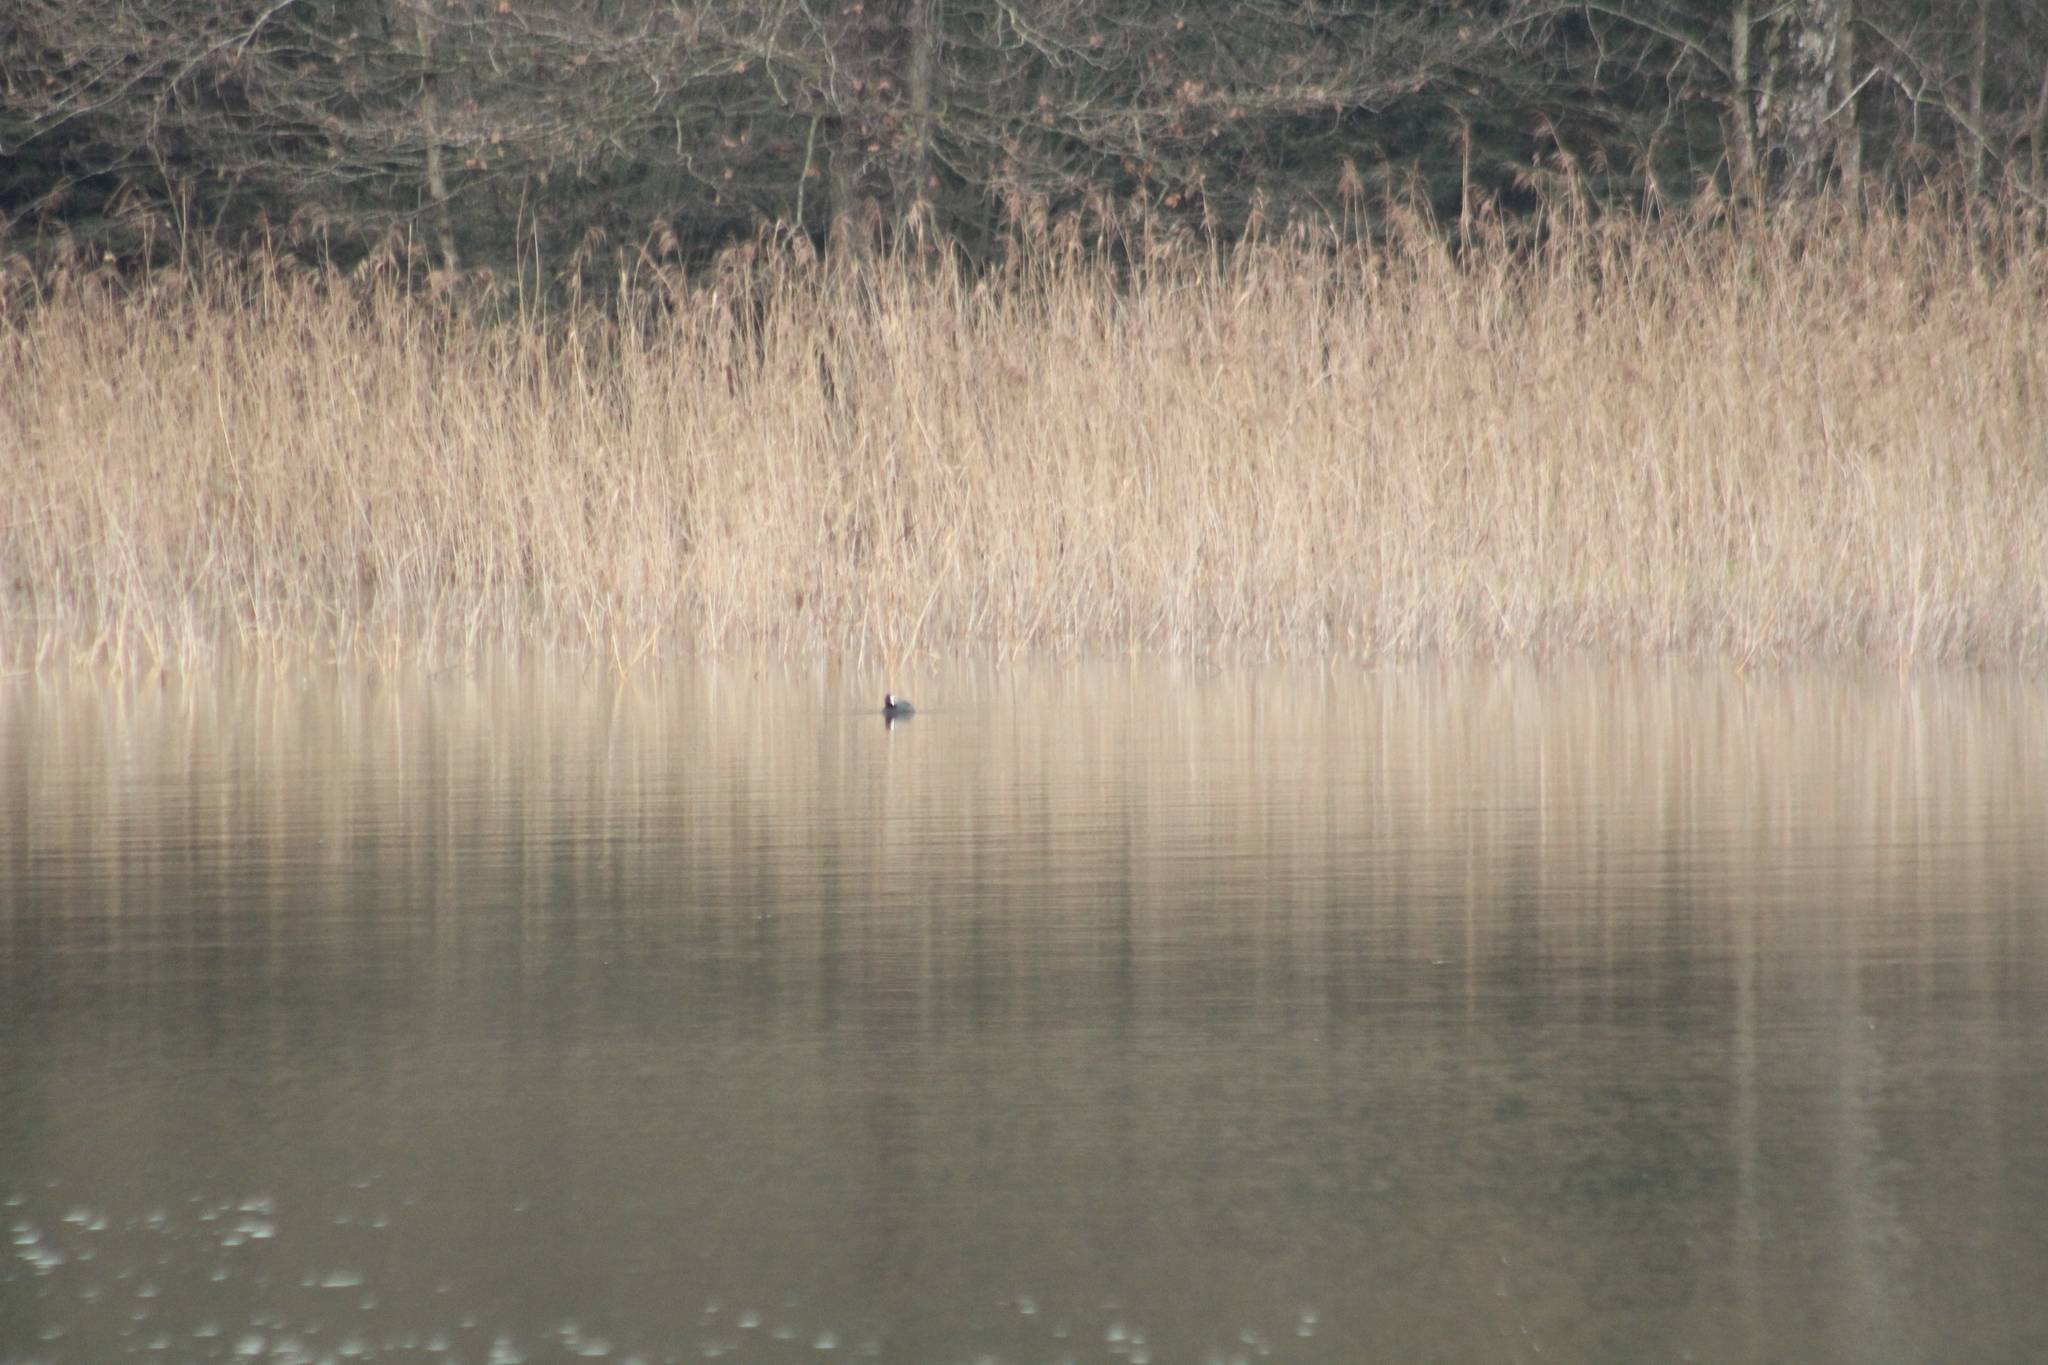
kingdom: Animalia
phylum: Chordata
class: Aves
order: Gruiformes
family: Rallidae
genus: Fulica
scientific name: Fulica atra
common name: Eurasian coot
